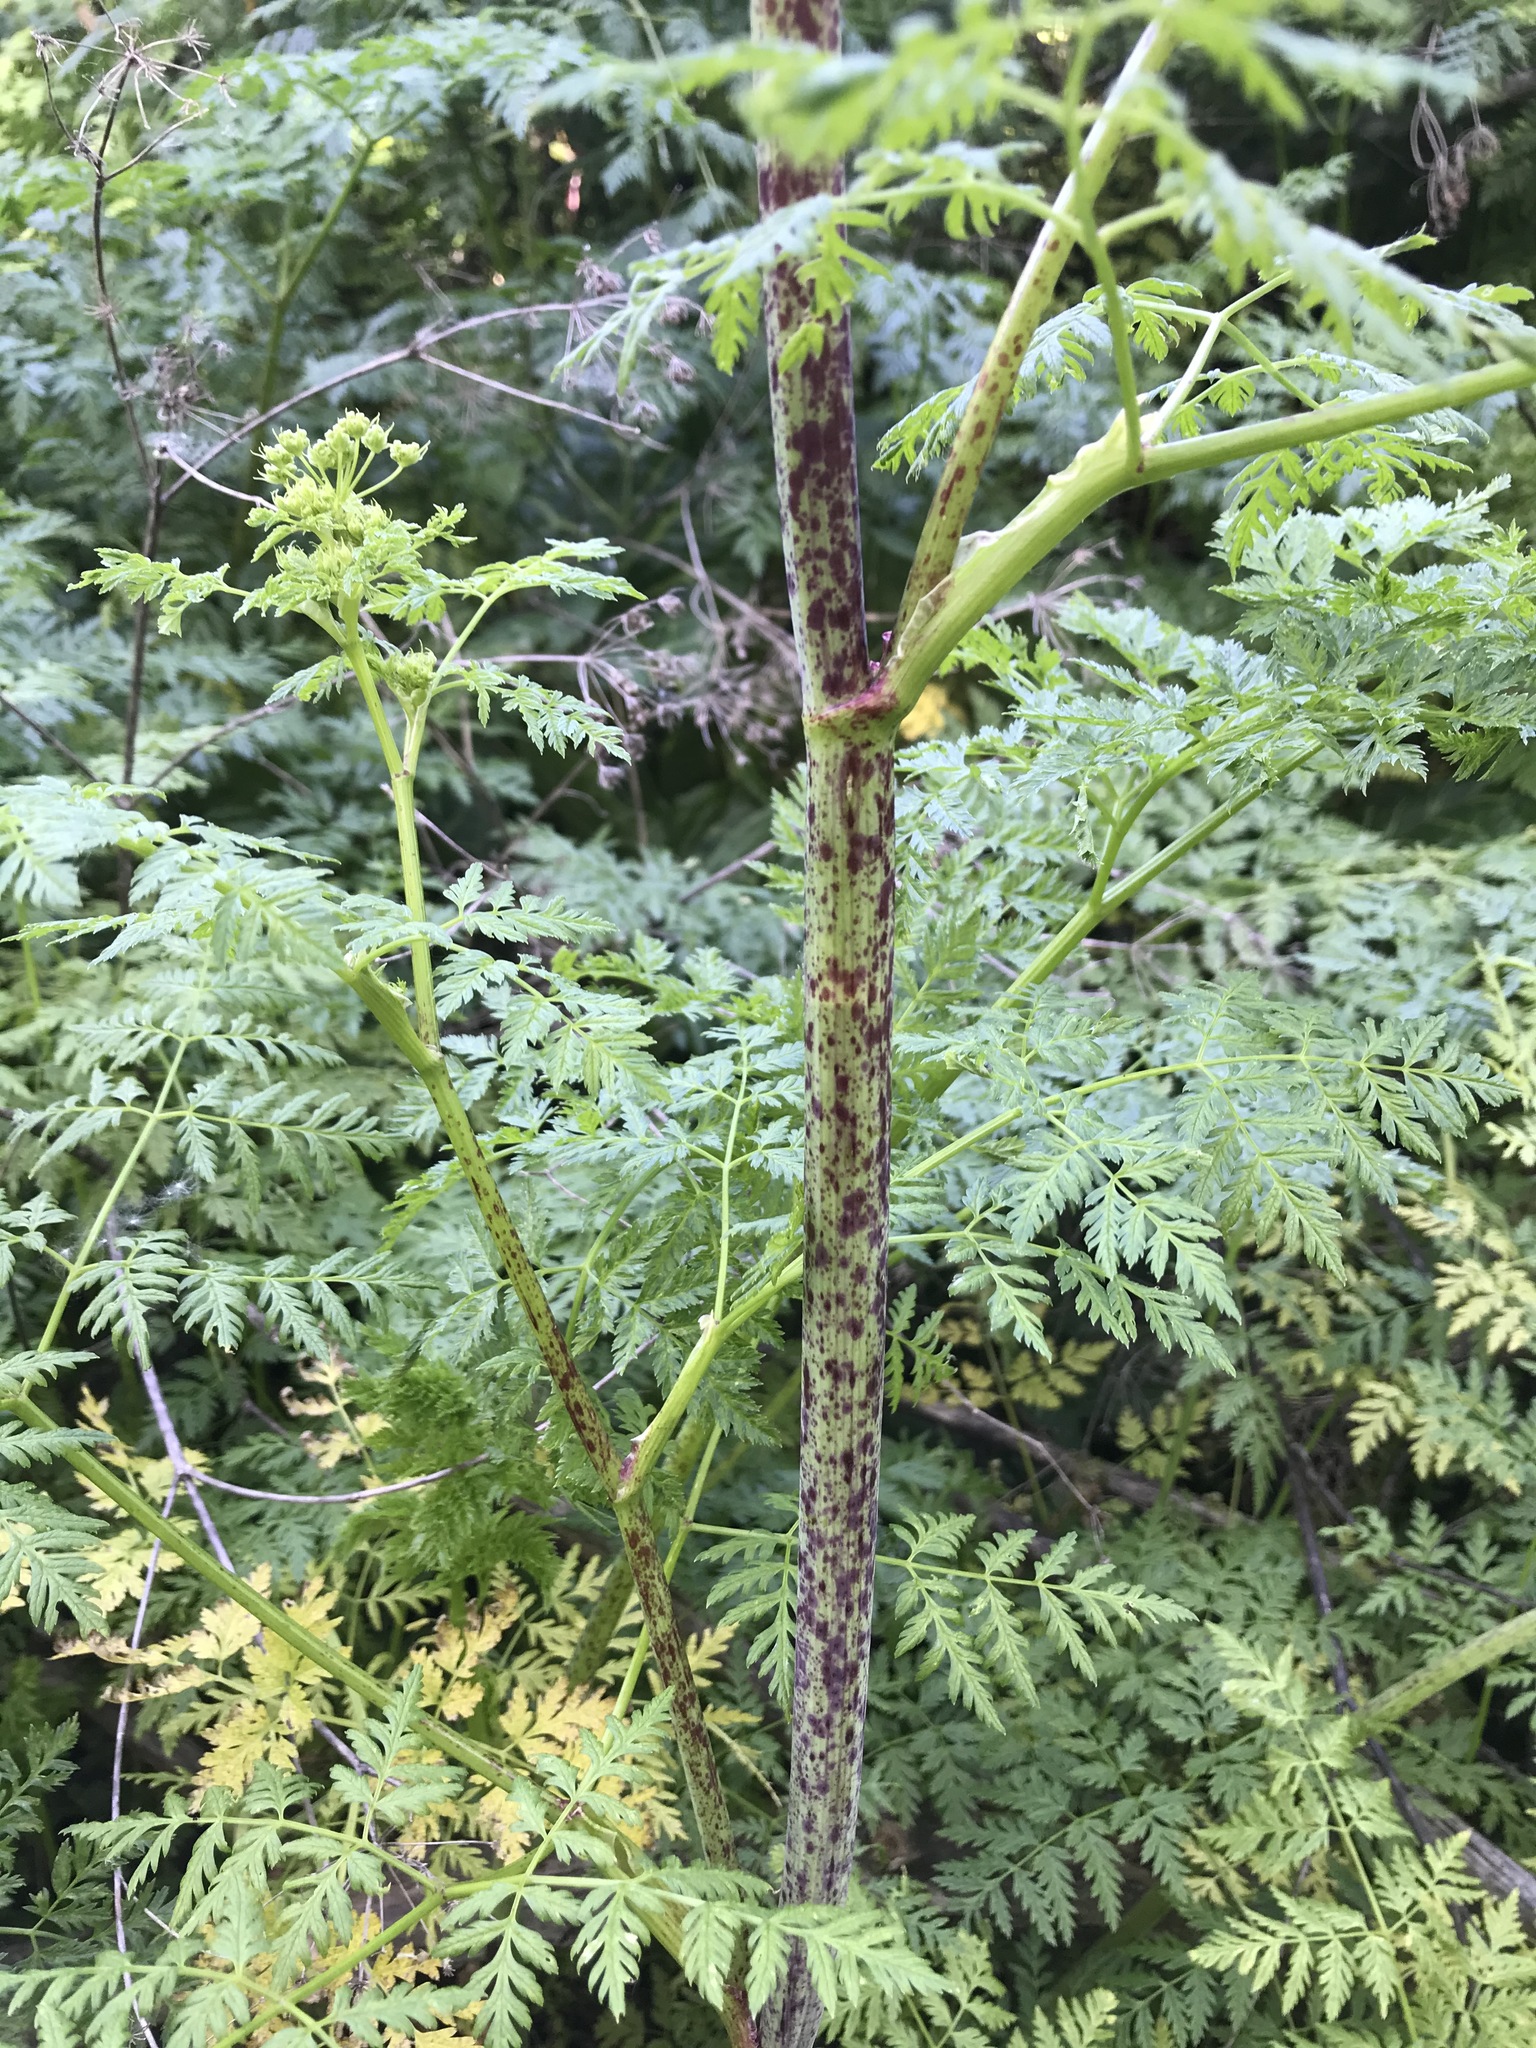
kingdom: Plantae
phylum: Tracheophyta
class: Magnoliopsida
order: Apiales
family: Apiaceae
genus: Conium
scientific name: Conium maculatum
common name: Hemlock
